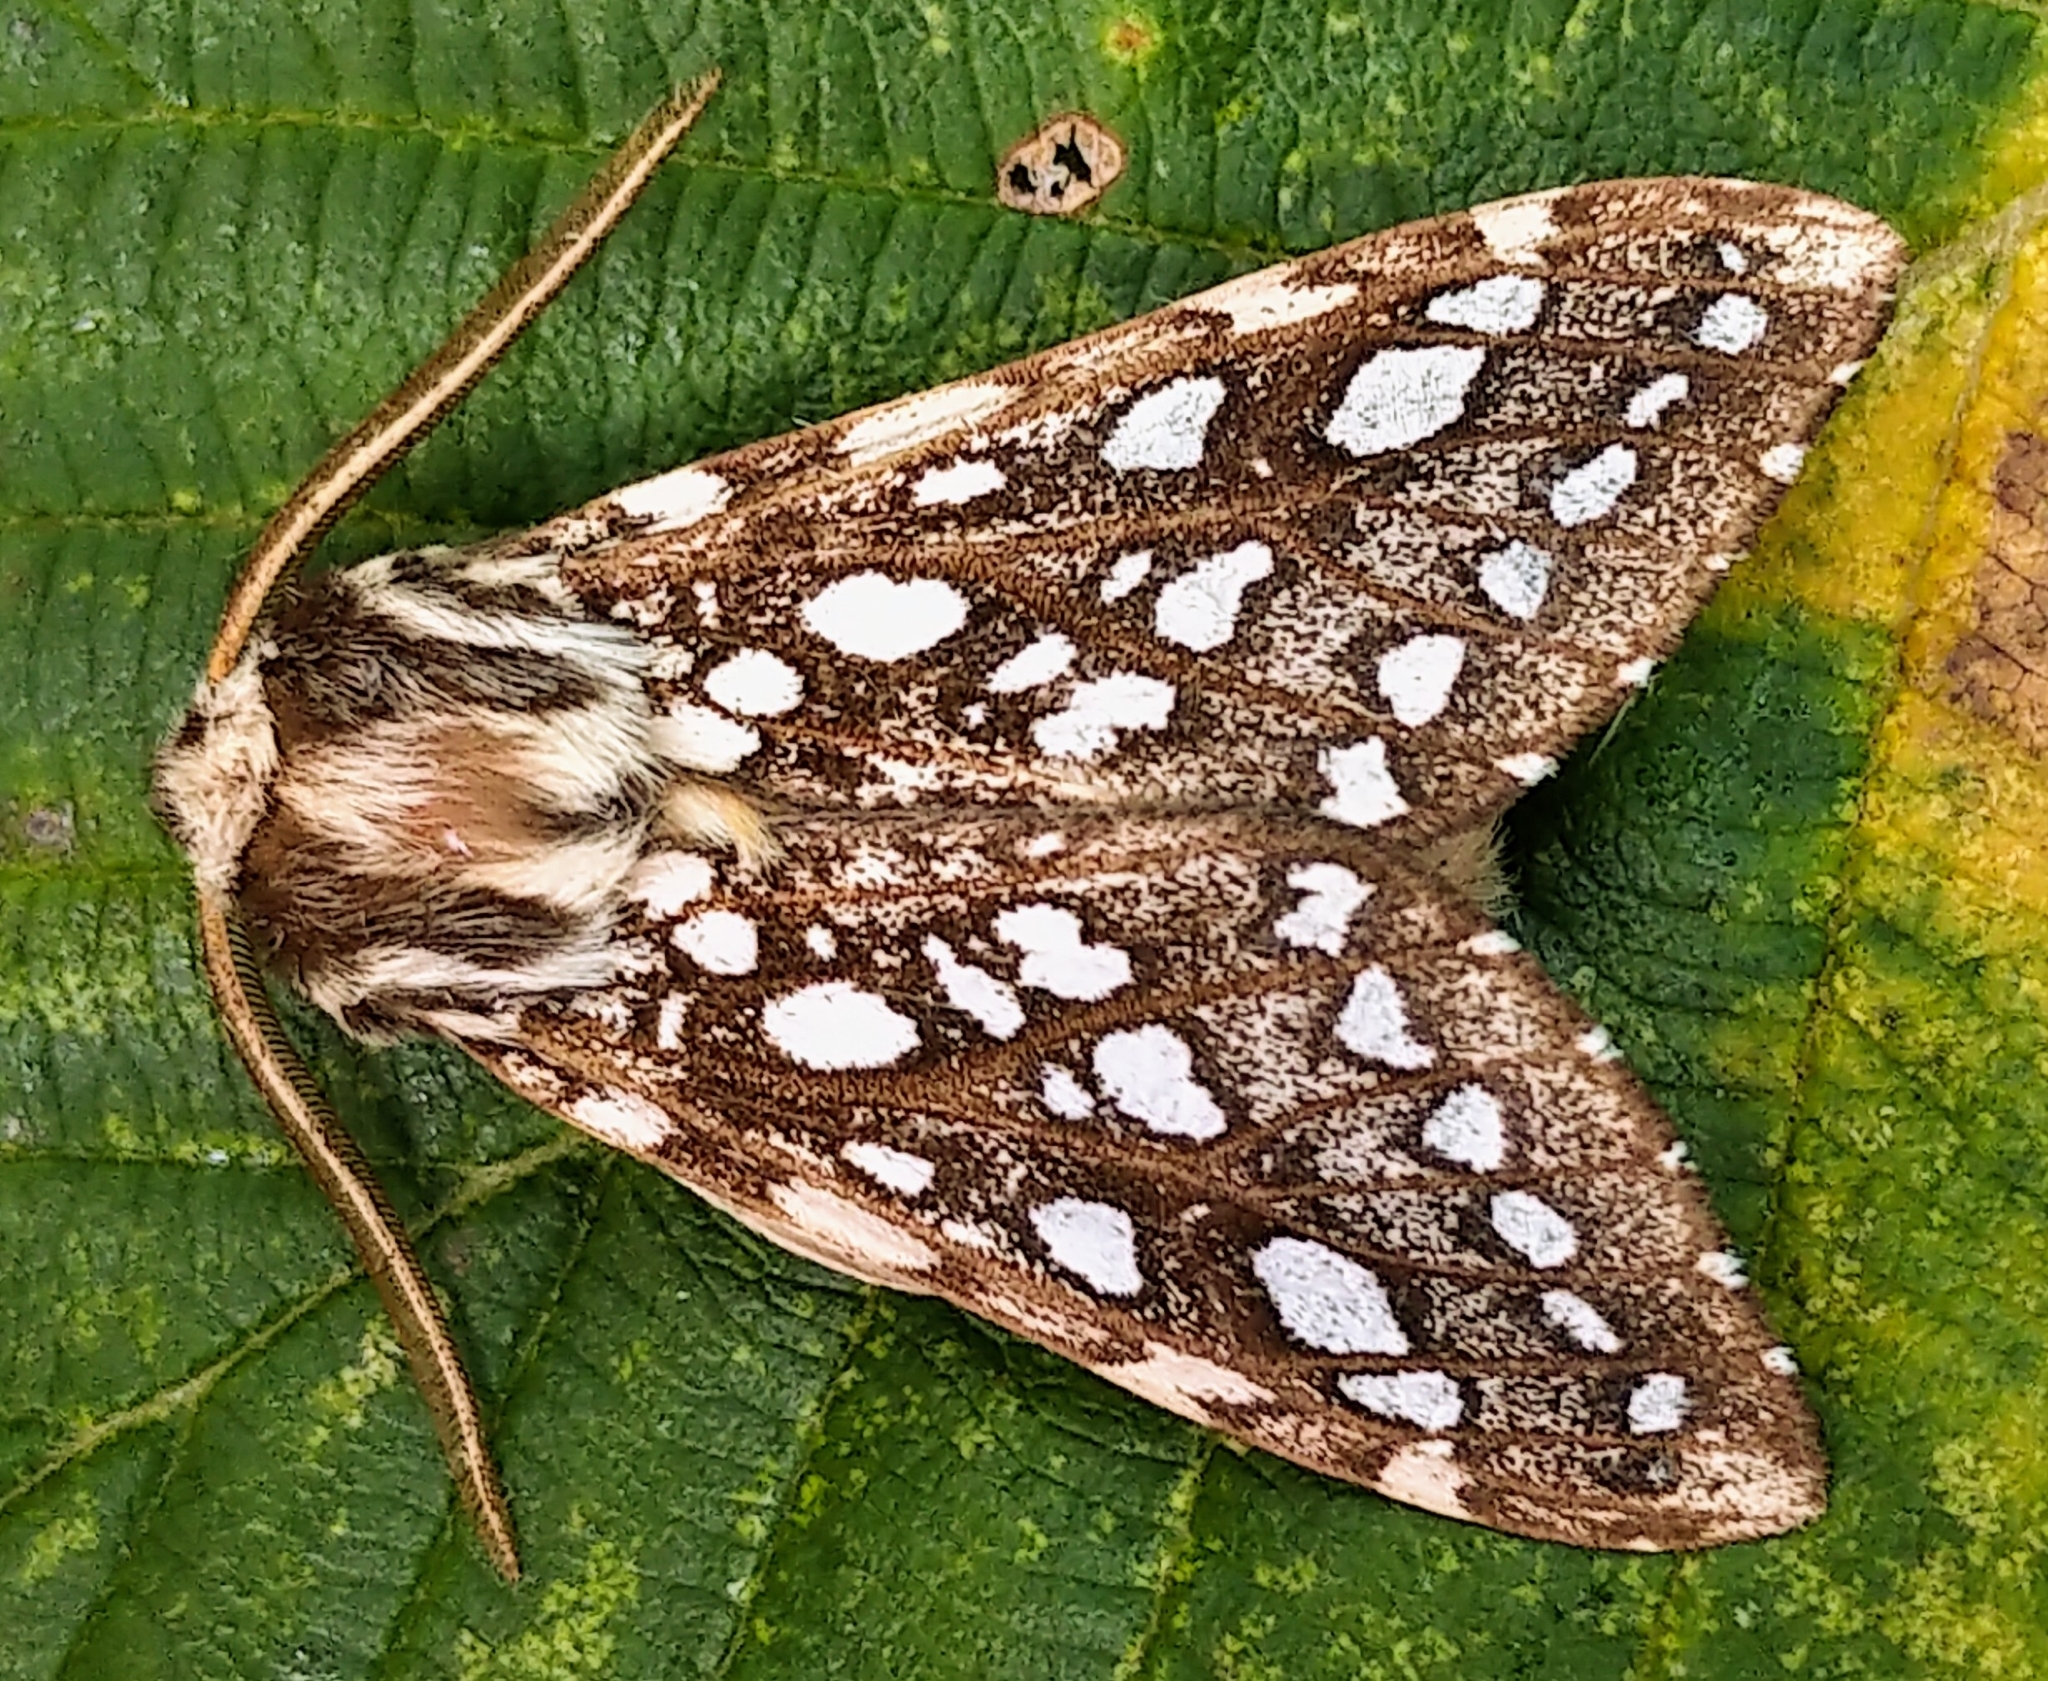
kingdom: Animalia
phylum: Arthropoda
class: Insecta
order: Lepidoptera
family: Erebidae
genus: Lophocampa
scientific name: Lophocampa argentata
